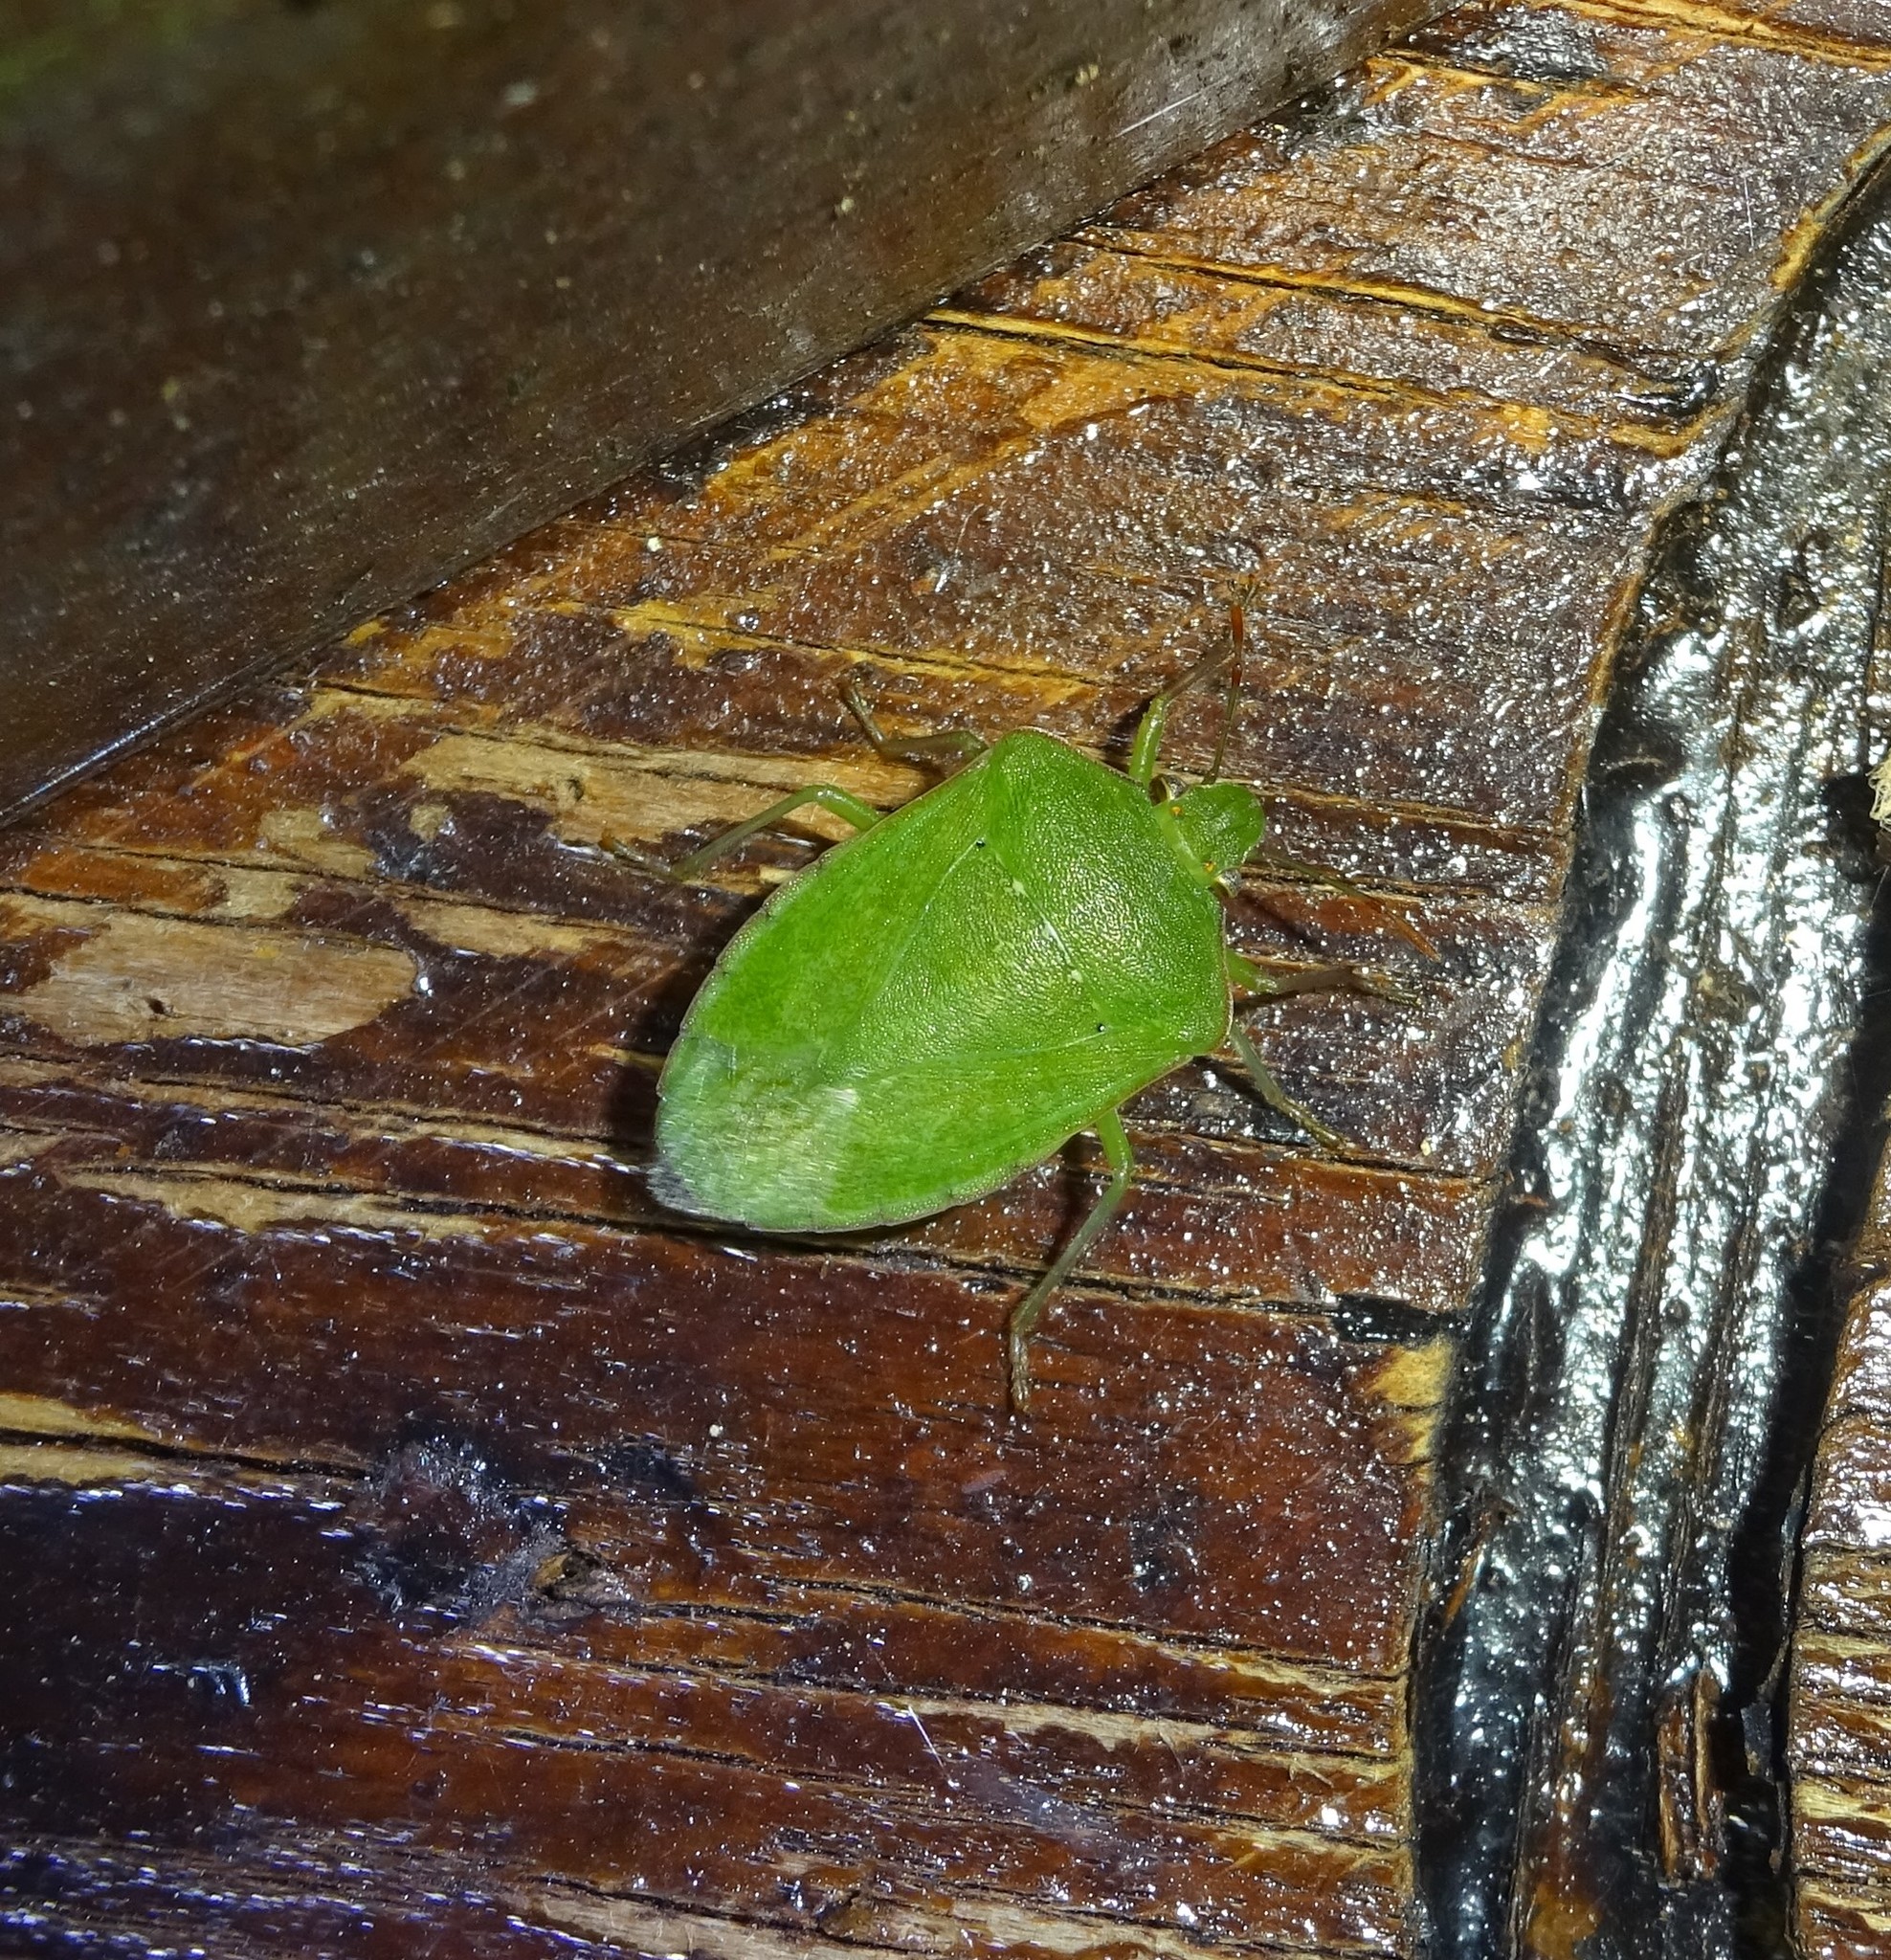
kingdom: Animalia
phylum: Arthropoda
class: Insecta
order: Hemiptera
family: Pentatomidae
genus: Nezara
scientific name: Nezara viridula
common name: Southern green stink bug
